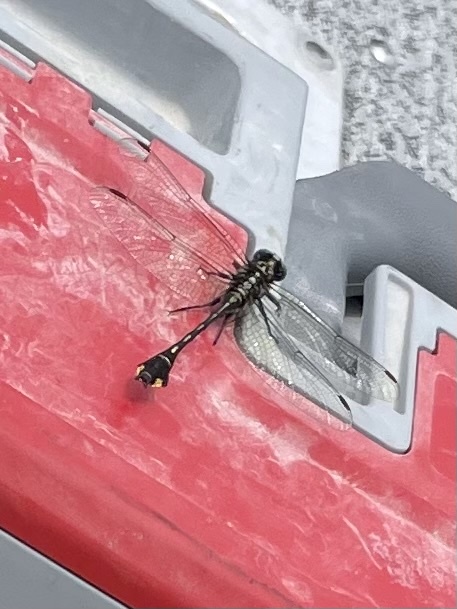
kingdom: Animalia
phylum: Arthropoda
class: Insecta
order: Odonata
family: Gomphidae
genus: Gomphurus
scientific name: Gomphurus vastus
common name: Cobra clubtail
